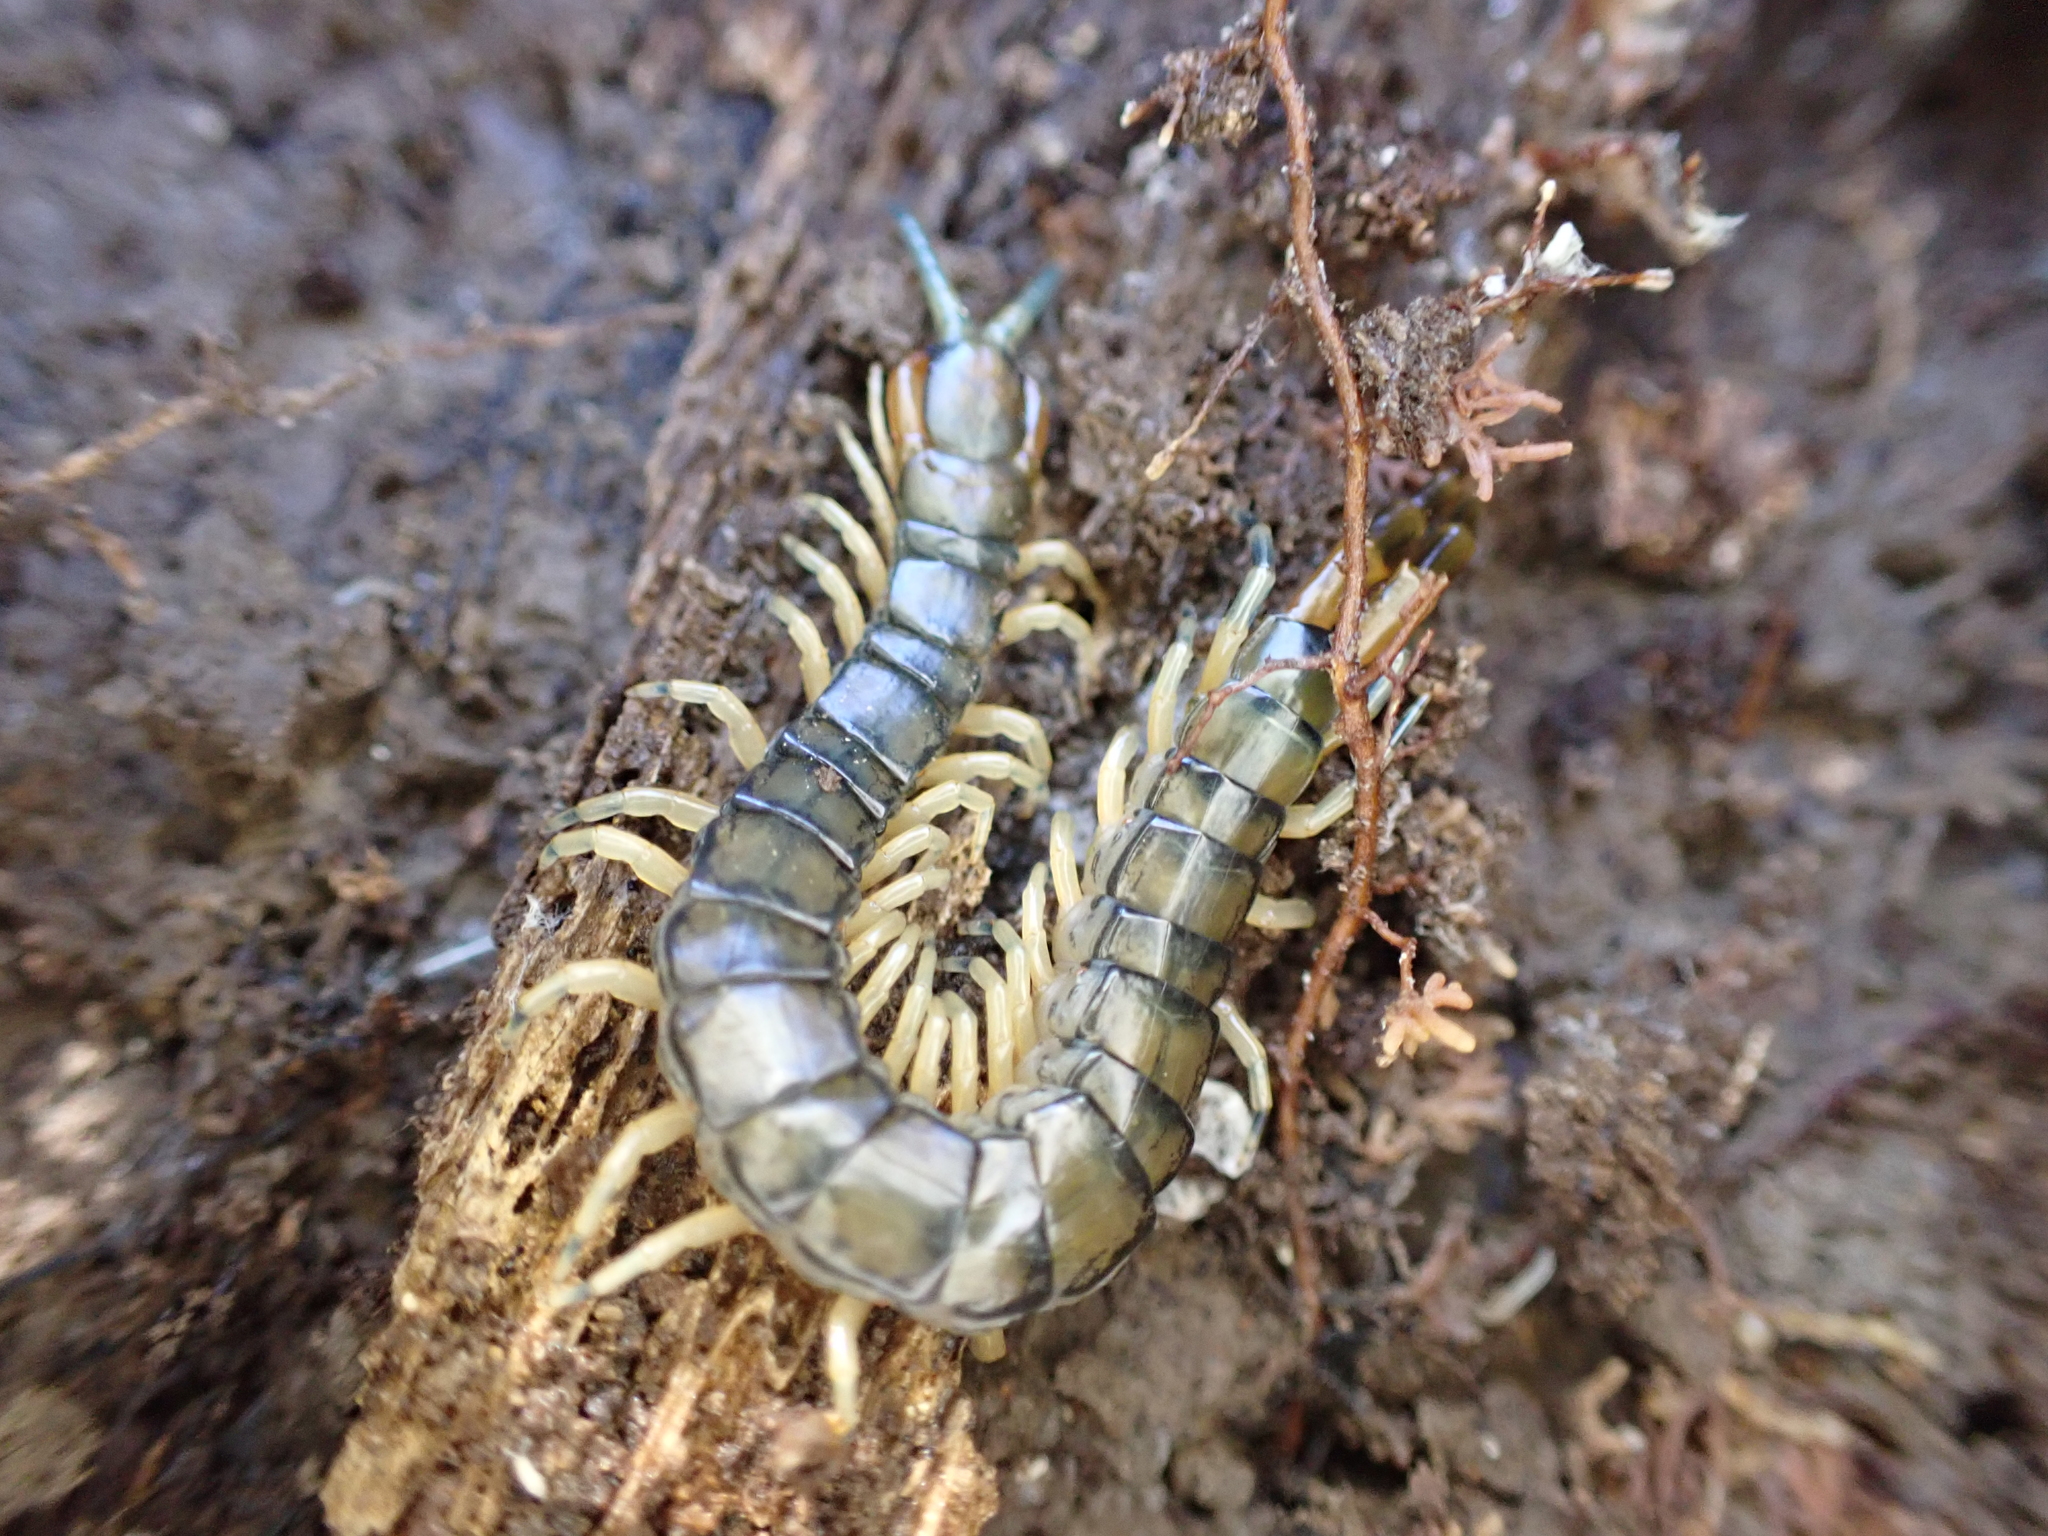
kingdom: Animalia
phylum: Arthropoda
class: Chilopoda
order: Scolopendromorpha
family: Scolopendridae
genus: Hemiscolopendra
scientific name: Hemiscolopendra marginata
